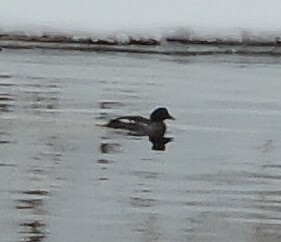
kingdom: Animalia
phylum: Chordata
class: Aves
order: Anseriformes
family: Anatidae
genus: Bucephala
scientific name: Bucephala clangula
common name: Common goldeneye
